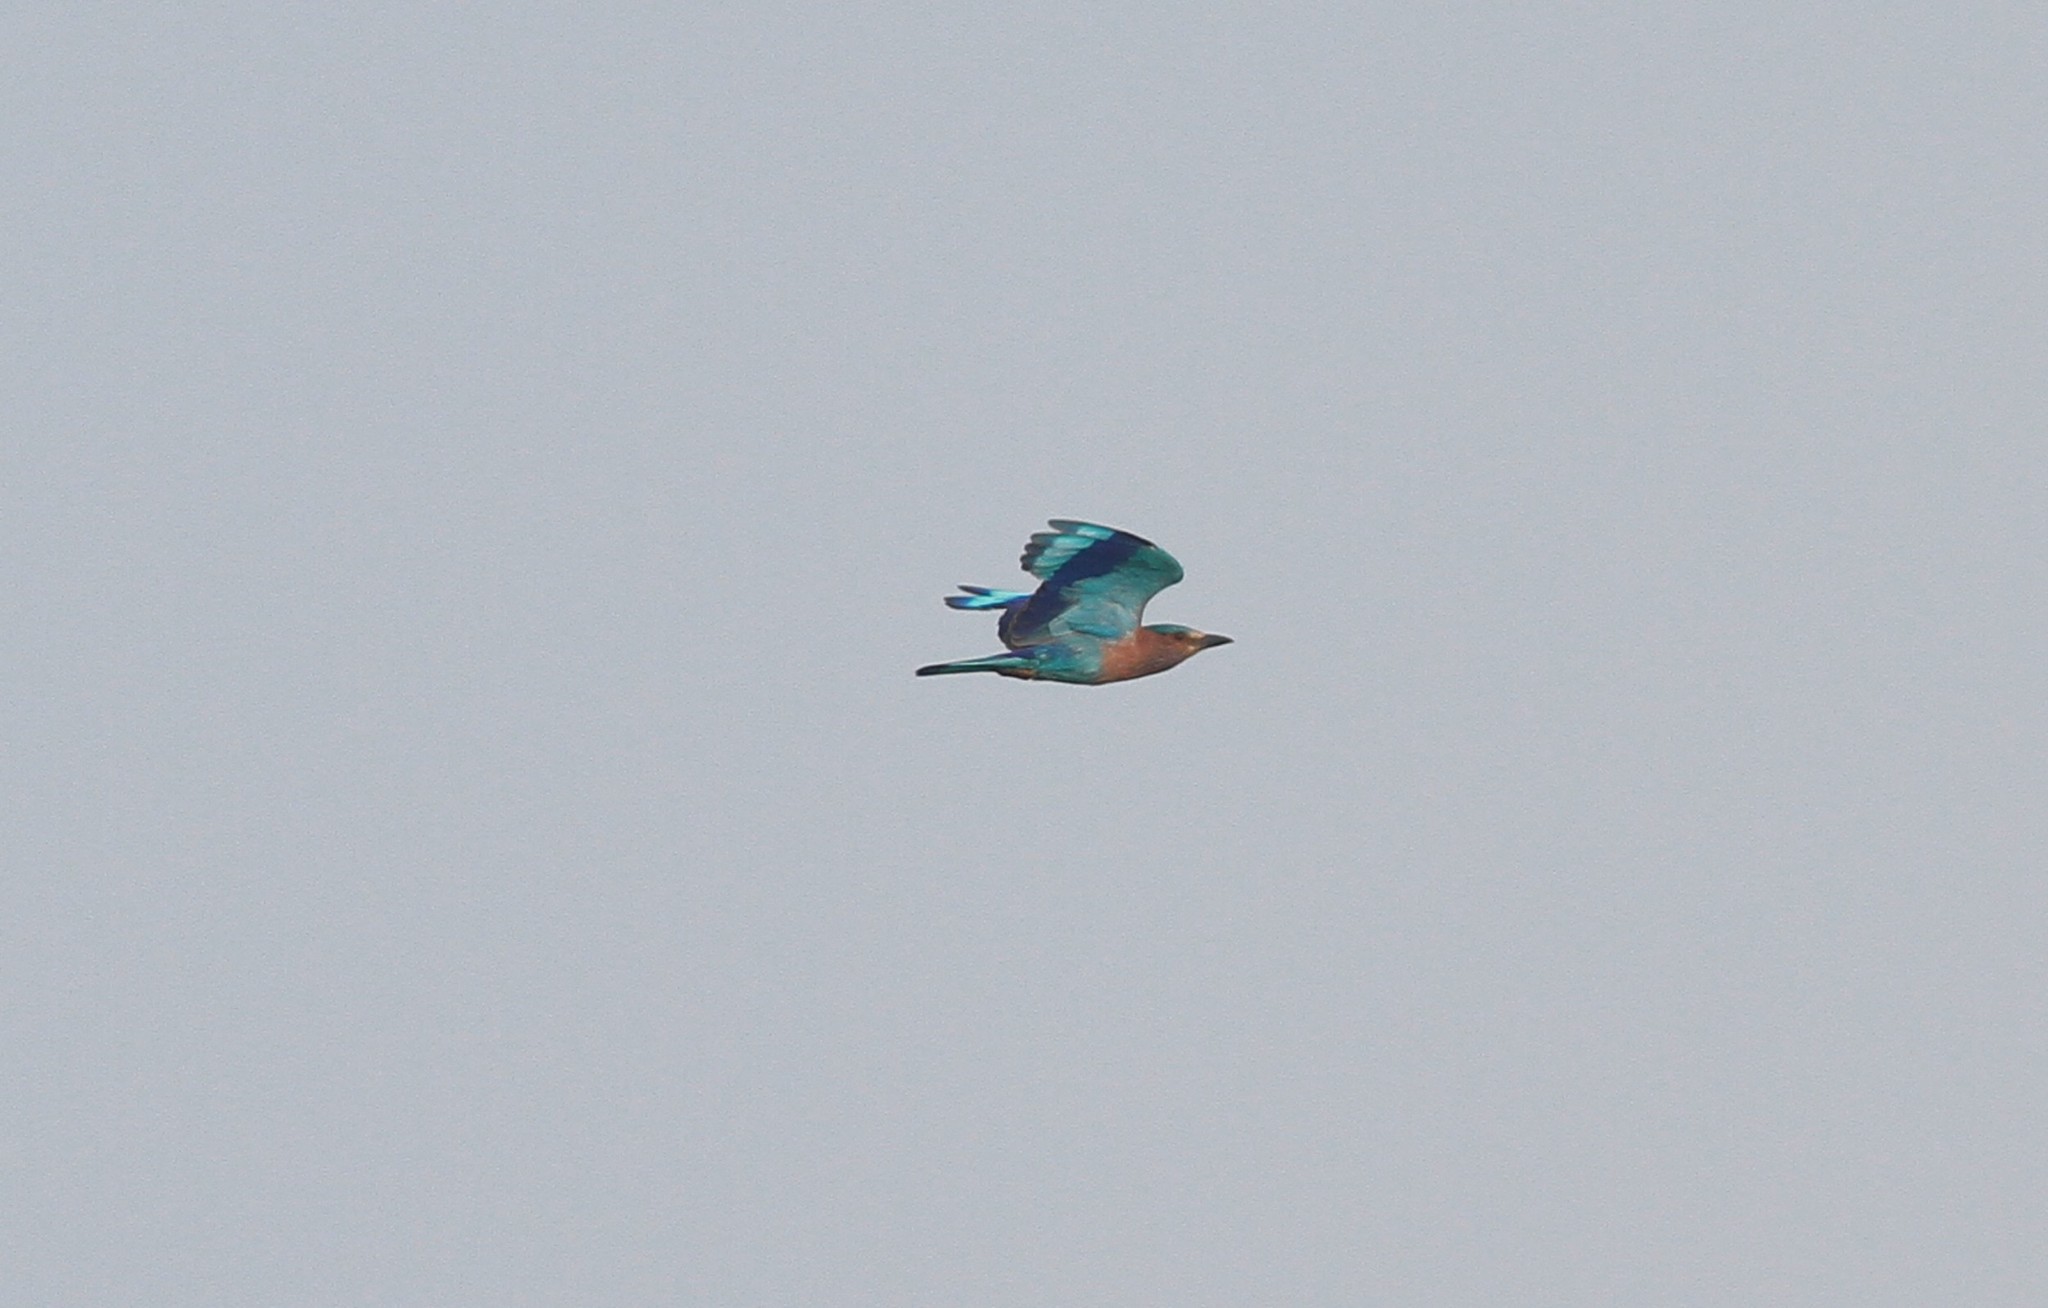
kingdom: Animalia
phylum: Chordata
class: Aves
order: Coraciiformes
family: Coraciidae
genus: Coracias
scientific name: Coracias benghalensis
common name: Indian roller
